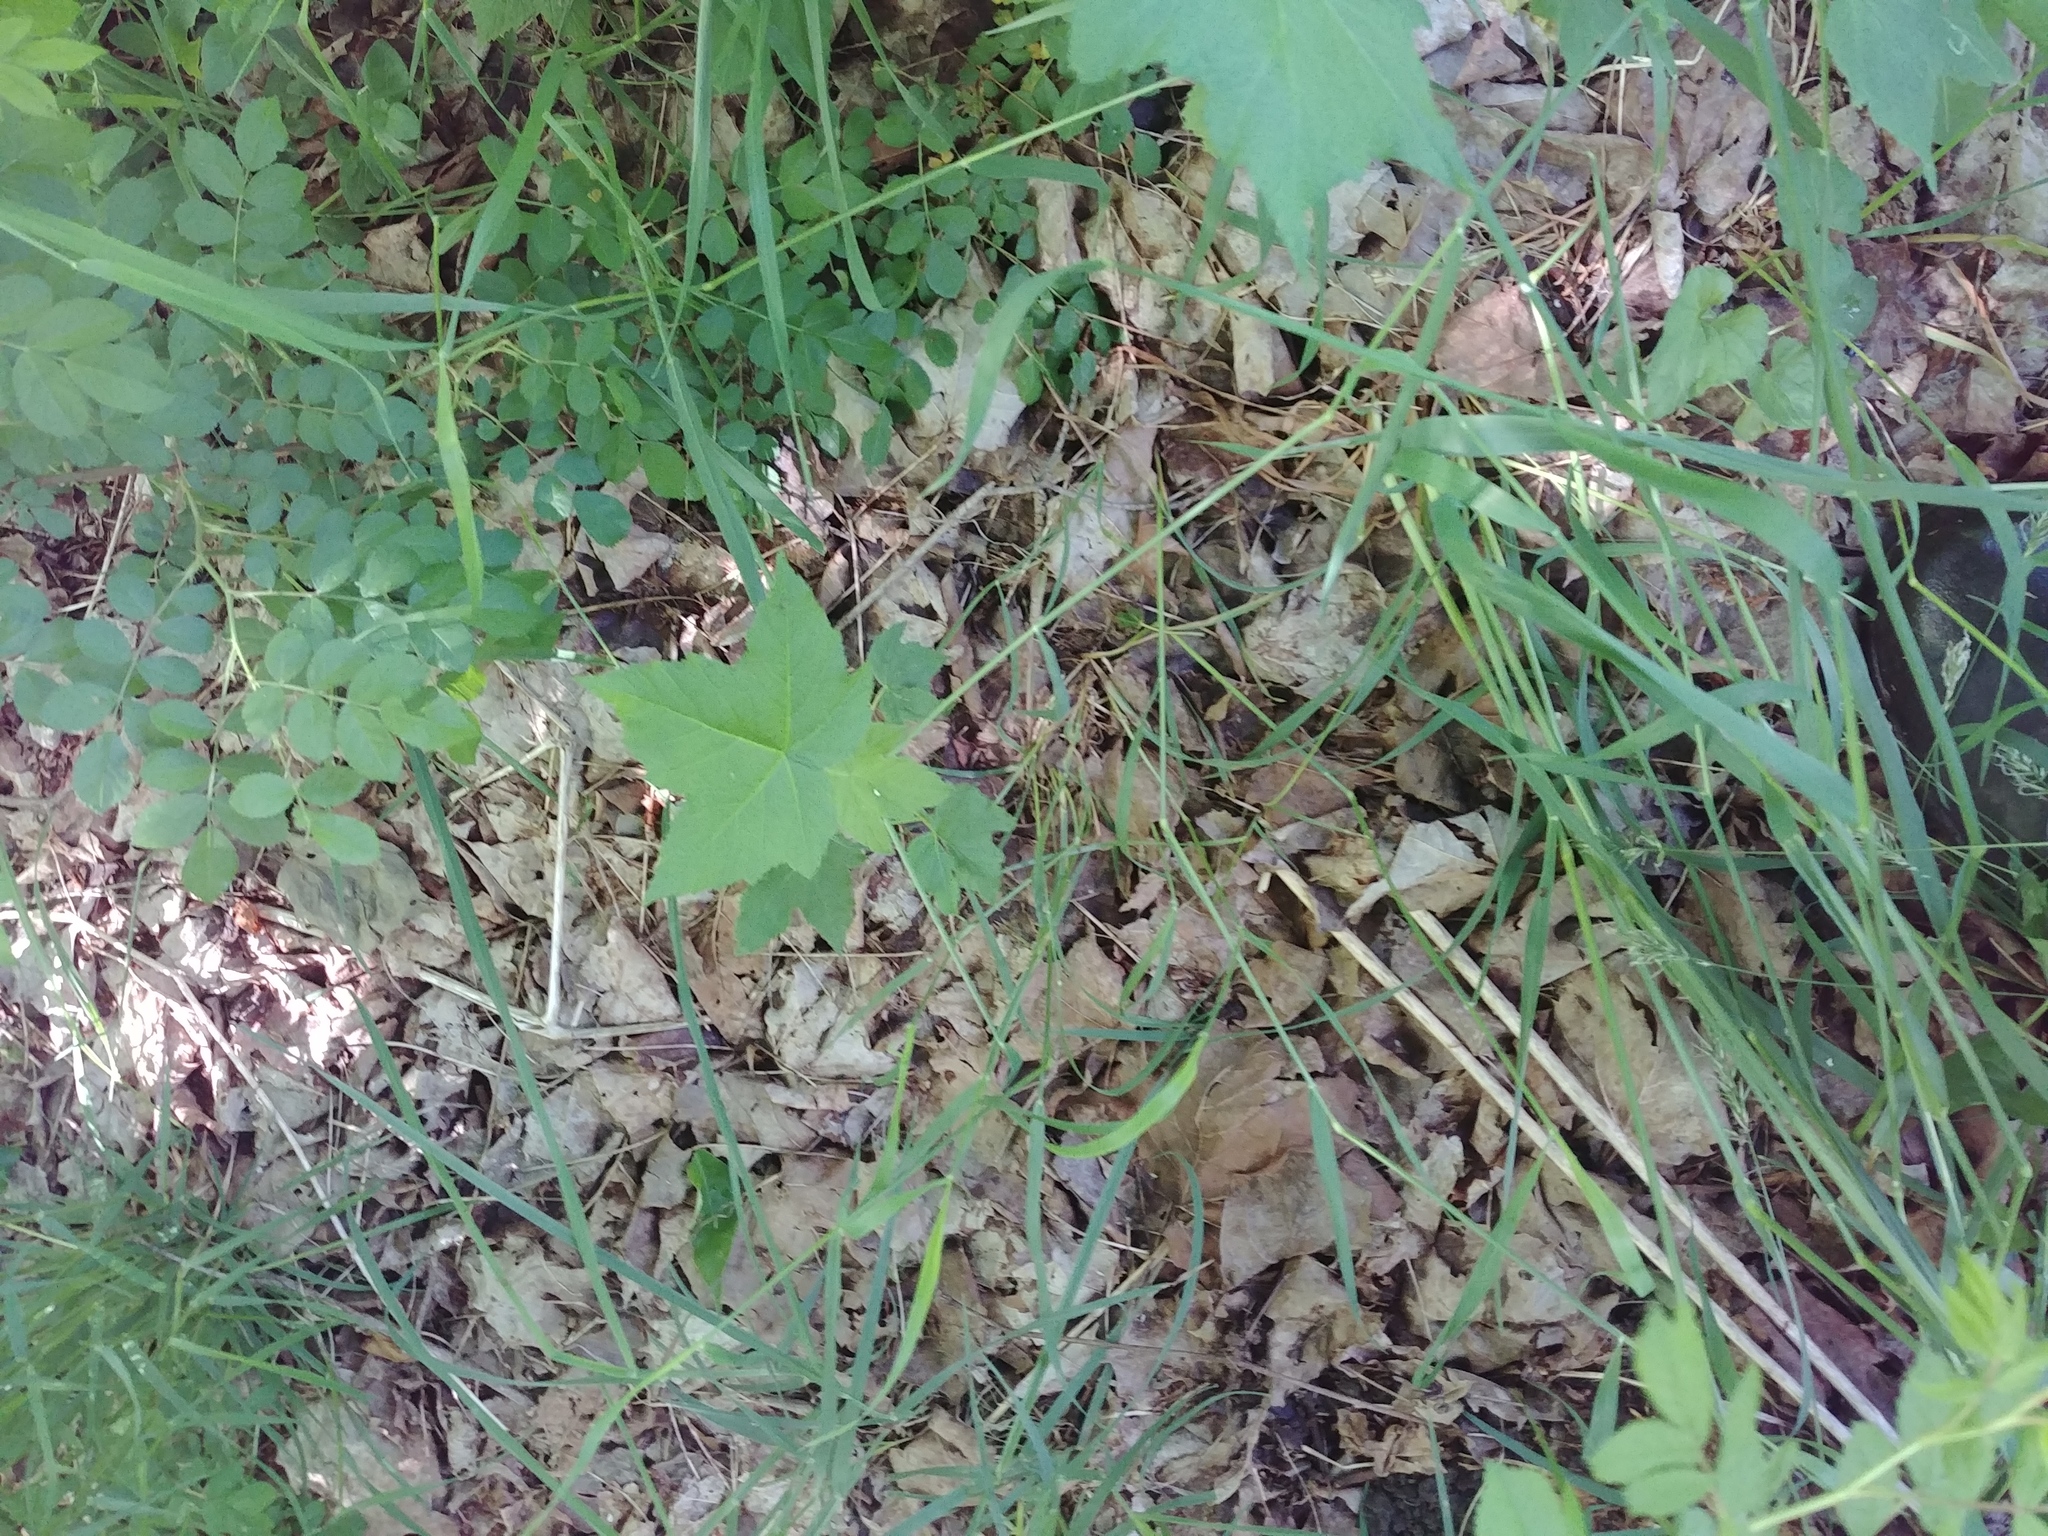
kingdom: Plantae
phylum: Tracheophyta
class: Magnoliopsida
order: Rosales
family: Rosaceae
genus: Rubus
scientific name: Rubus odoratus
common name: Purple-flowered raspberry
